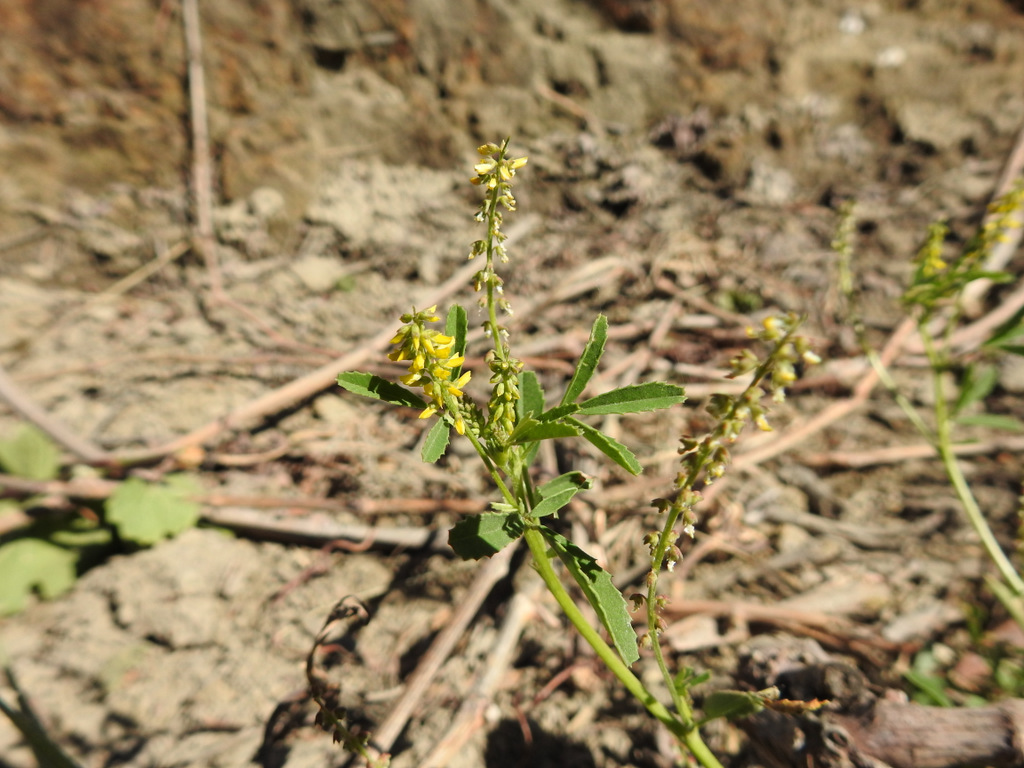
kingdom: Plantae
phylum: Tracheophyta
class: Magnoliopsida
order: Fabales
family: Fabaceae
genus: Melilotus
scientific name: Melilotus indicus
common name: Small melilot
